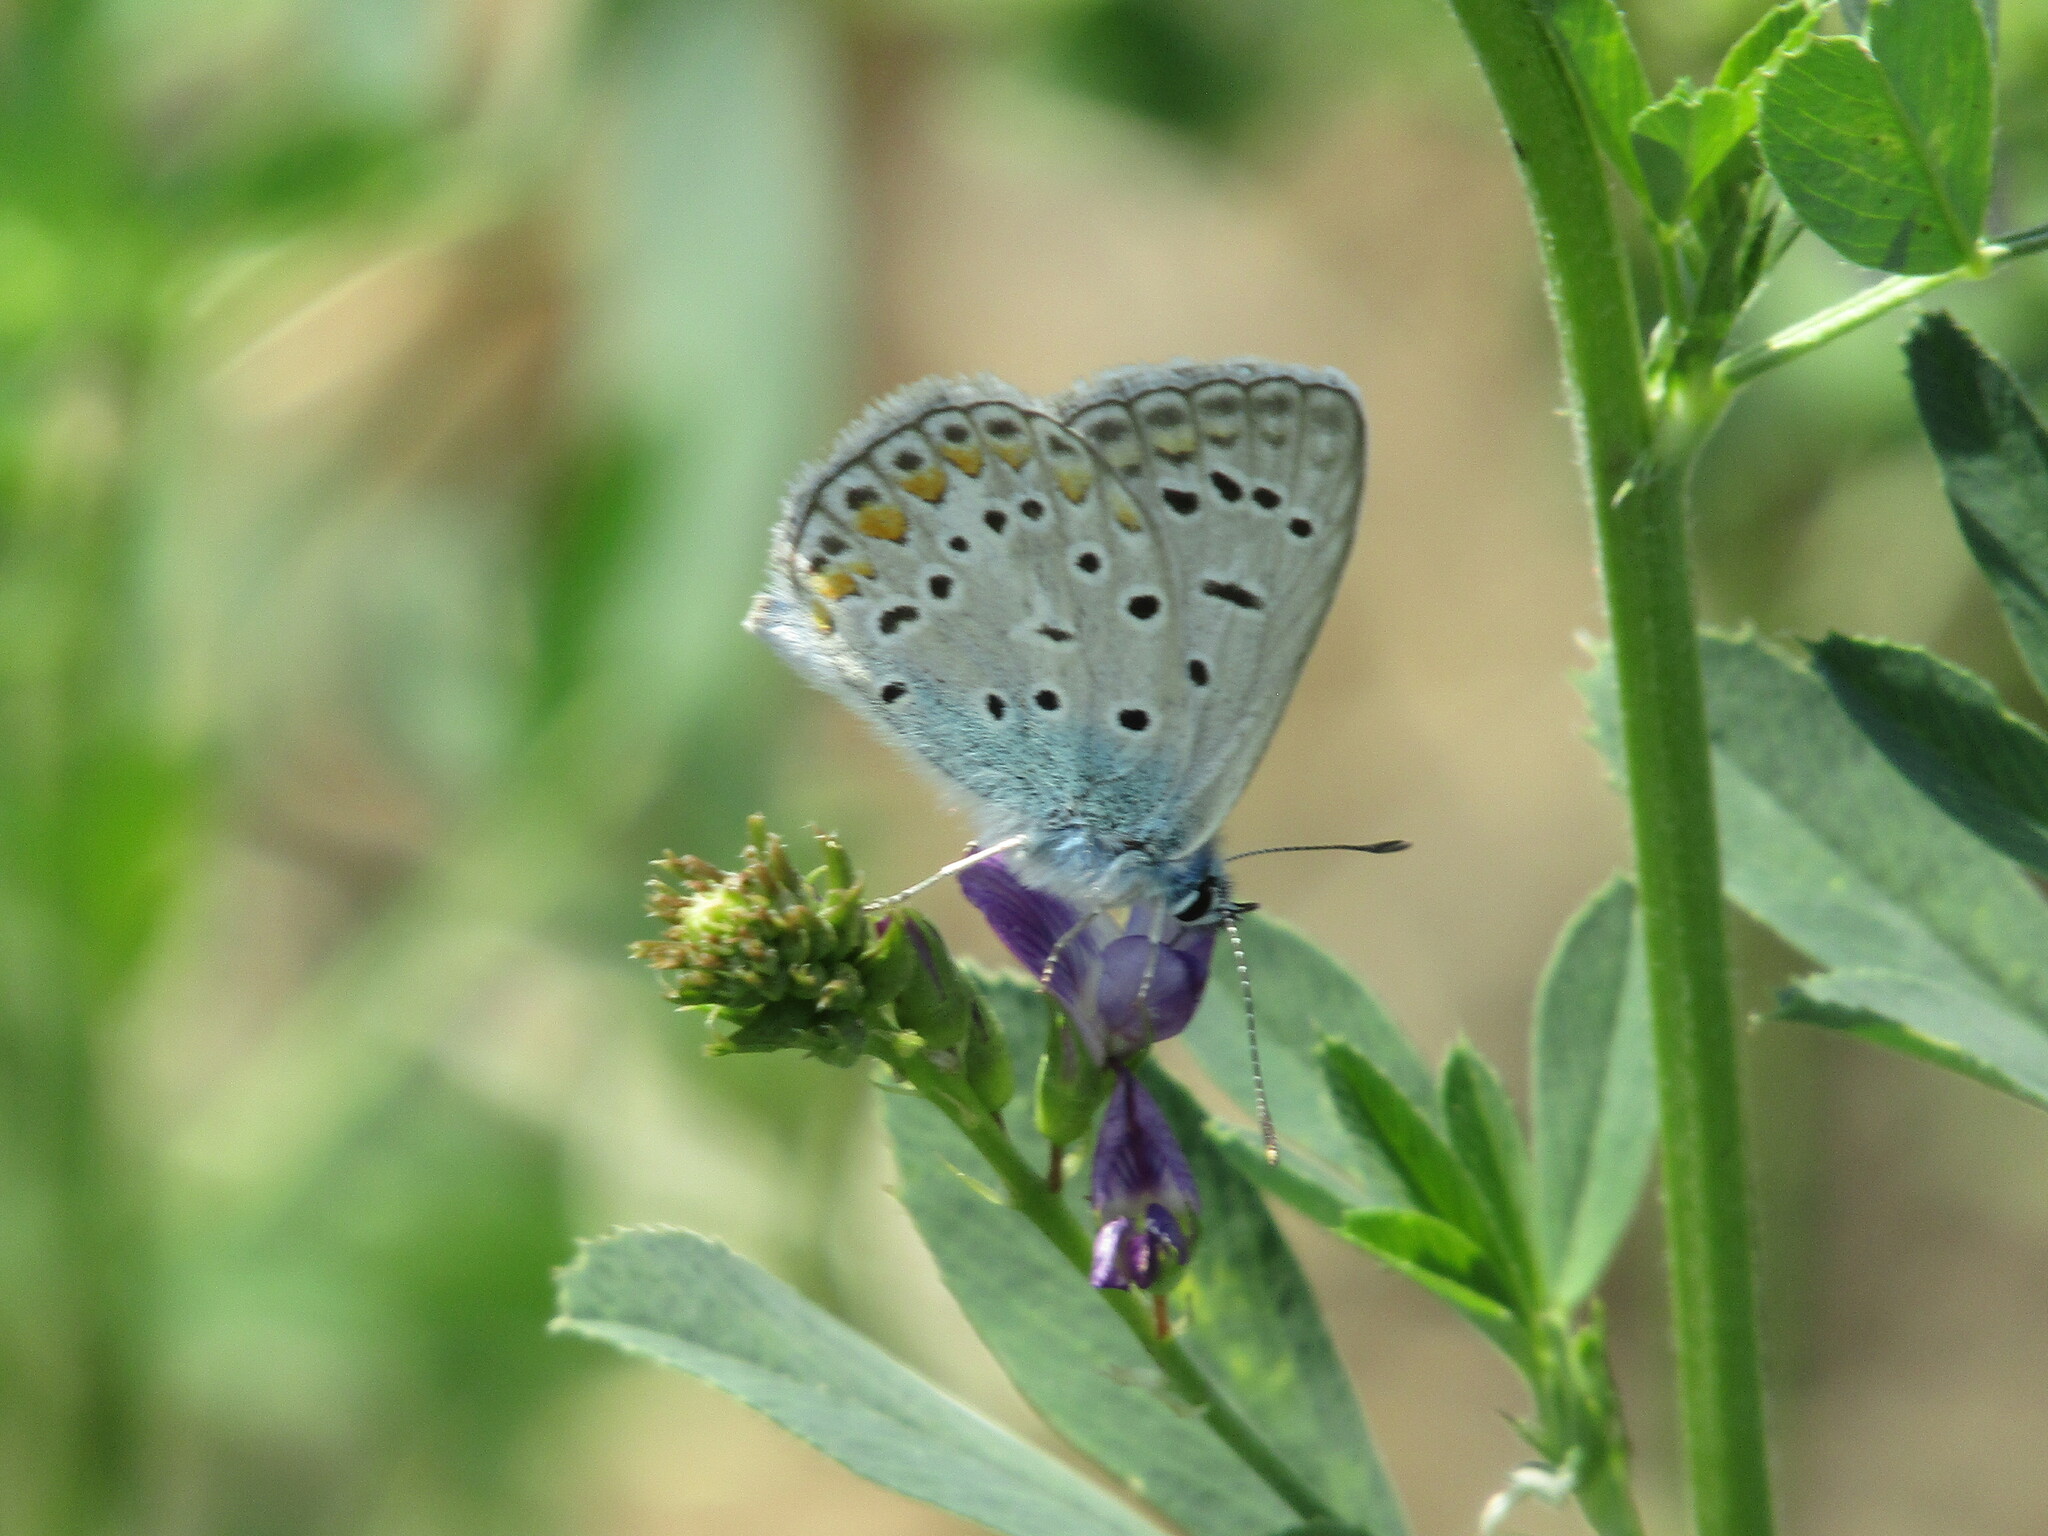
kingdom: Animalia
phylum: Arthropoda
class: Insecta
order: Lepidoptera
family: Lycaenidae
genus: Polyommatus
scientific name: Polyommatus icarus
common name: Common blue
